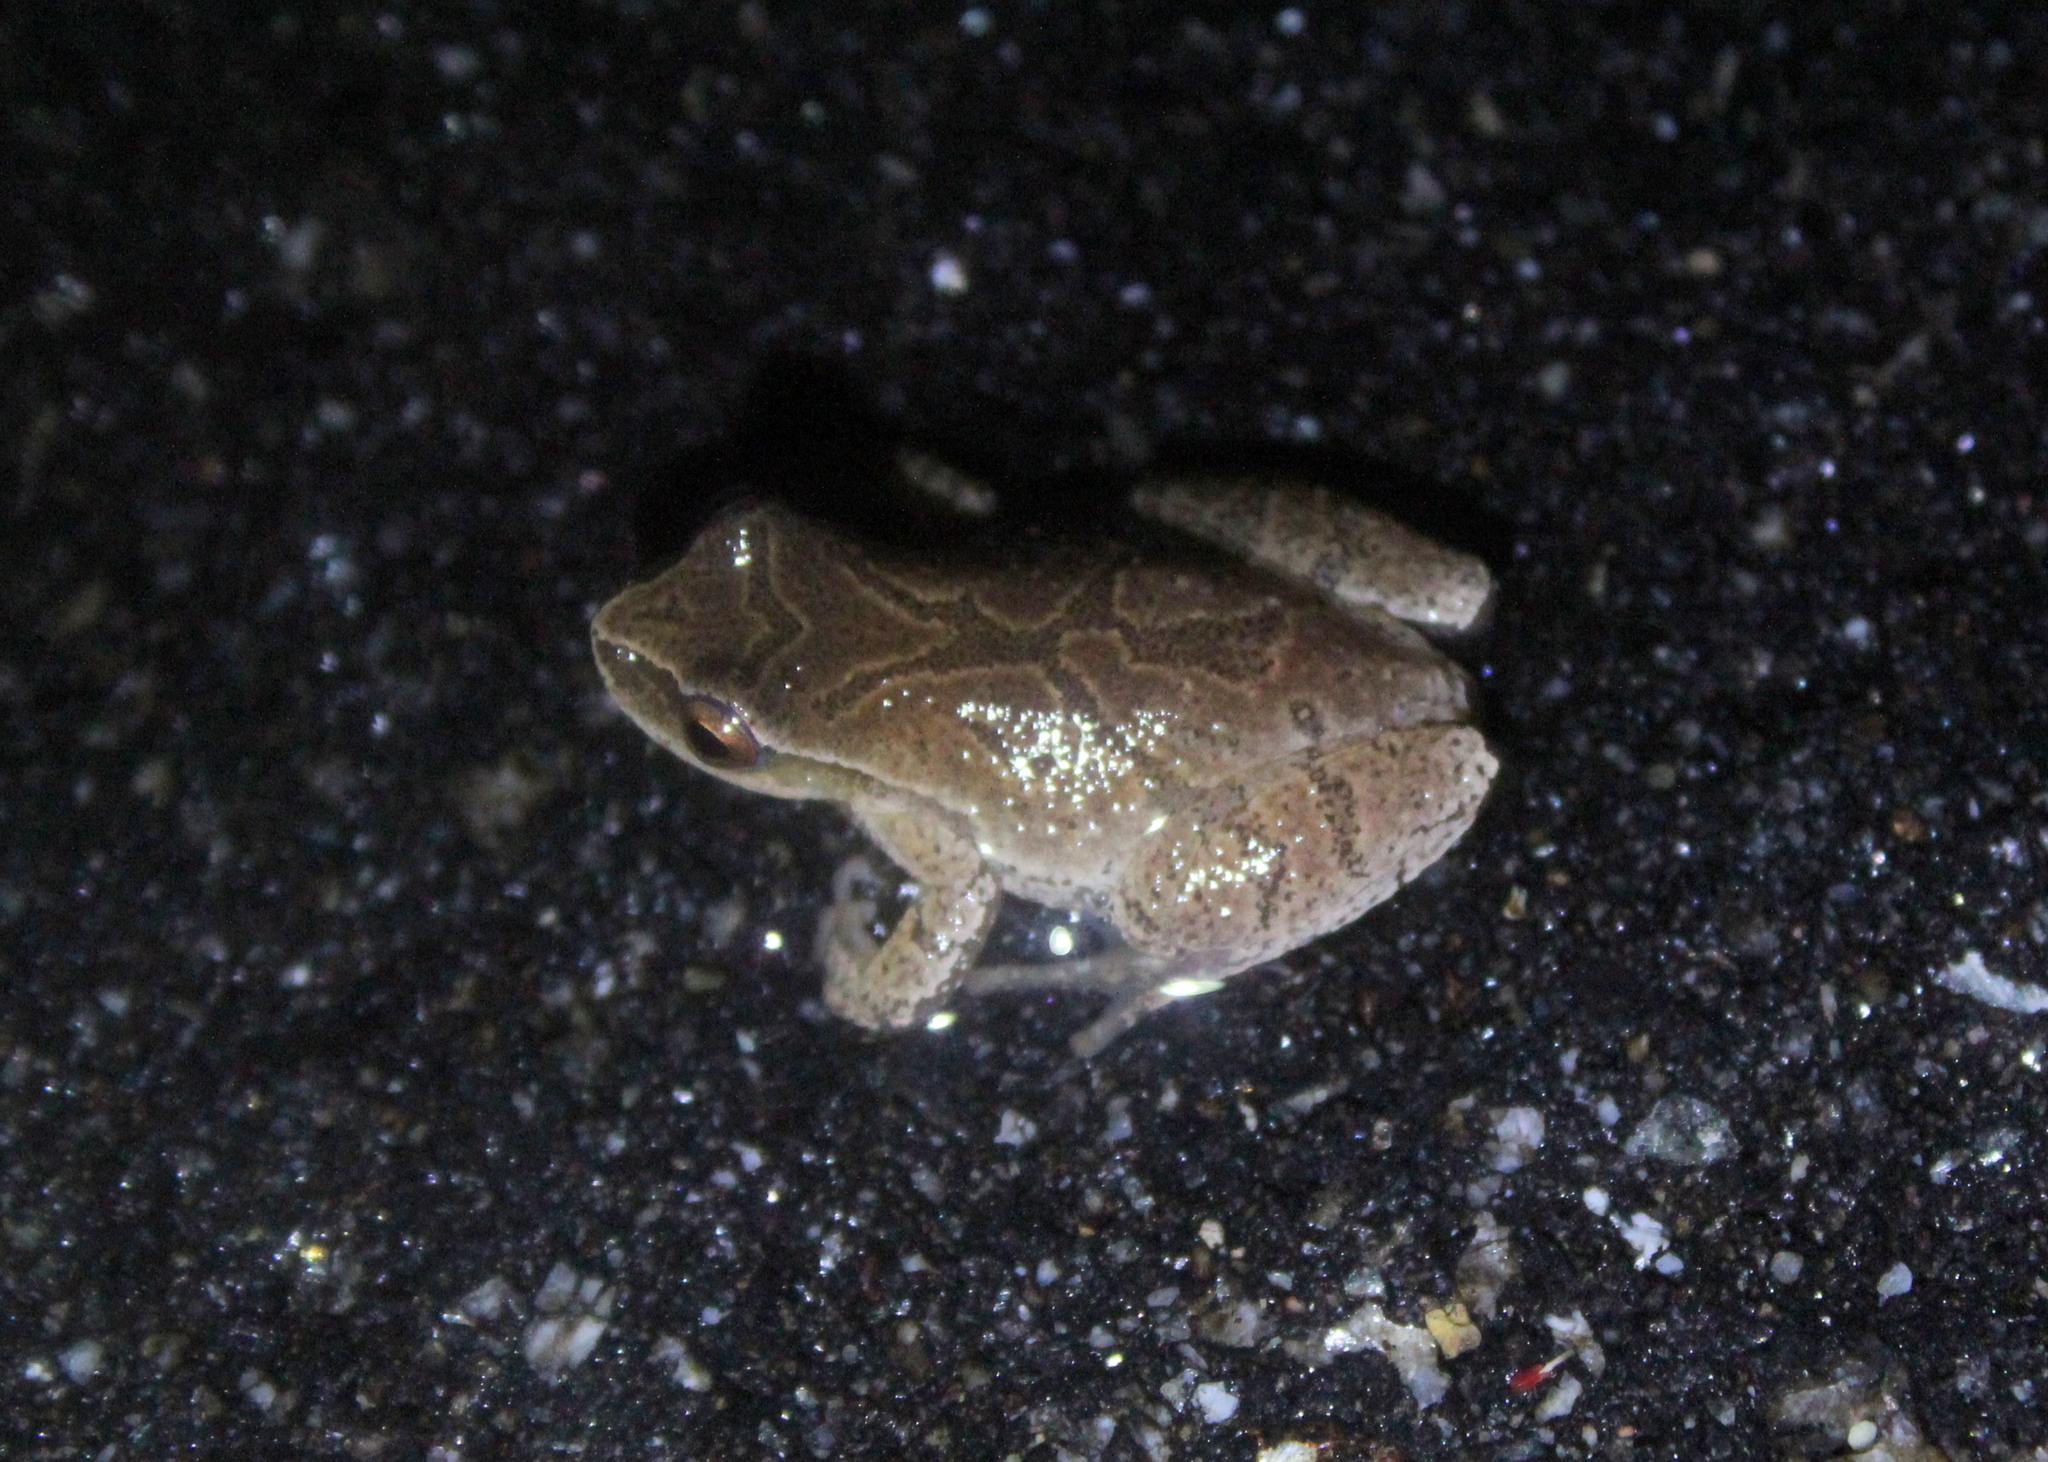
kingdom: Animalia
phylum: Chordata
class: Amphibia
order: Anura
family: Hylidae
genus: Pseudacris
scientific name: Pseudacris crucifer
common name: Spring peeper
